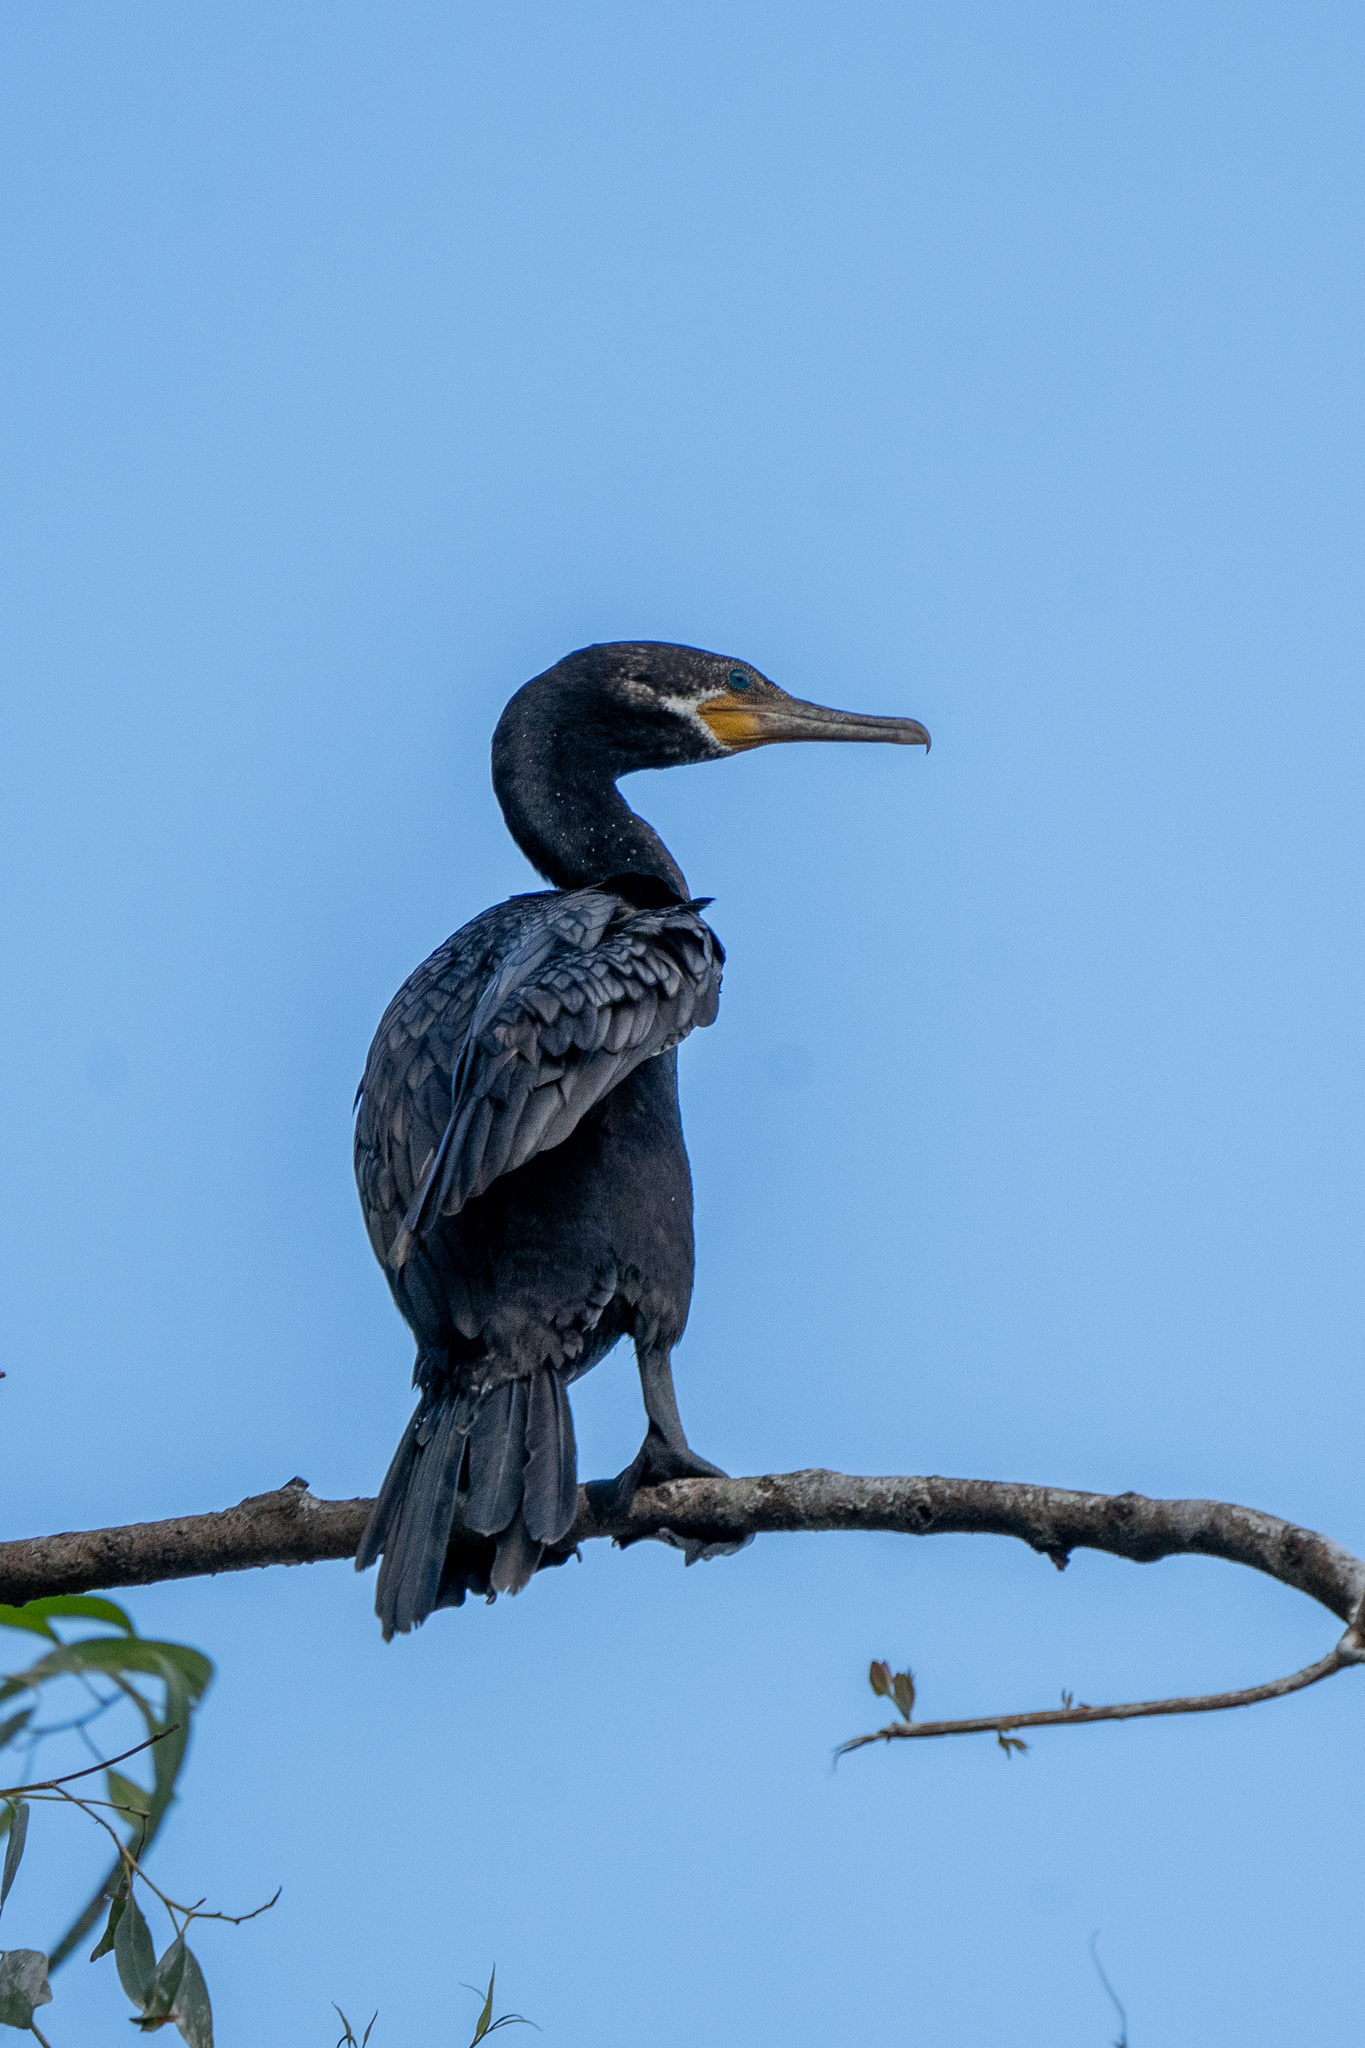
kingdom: Animalia
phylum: Chordata
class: Aves
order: Suliformes
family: Phalacrocoracidae
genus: Phalacrocorax
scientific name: Phalacrocorax brasilianus
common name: Neotropic cormorant
